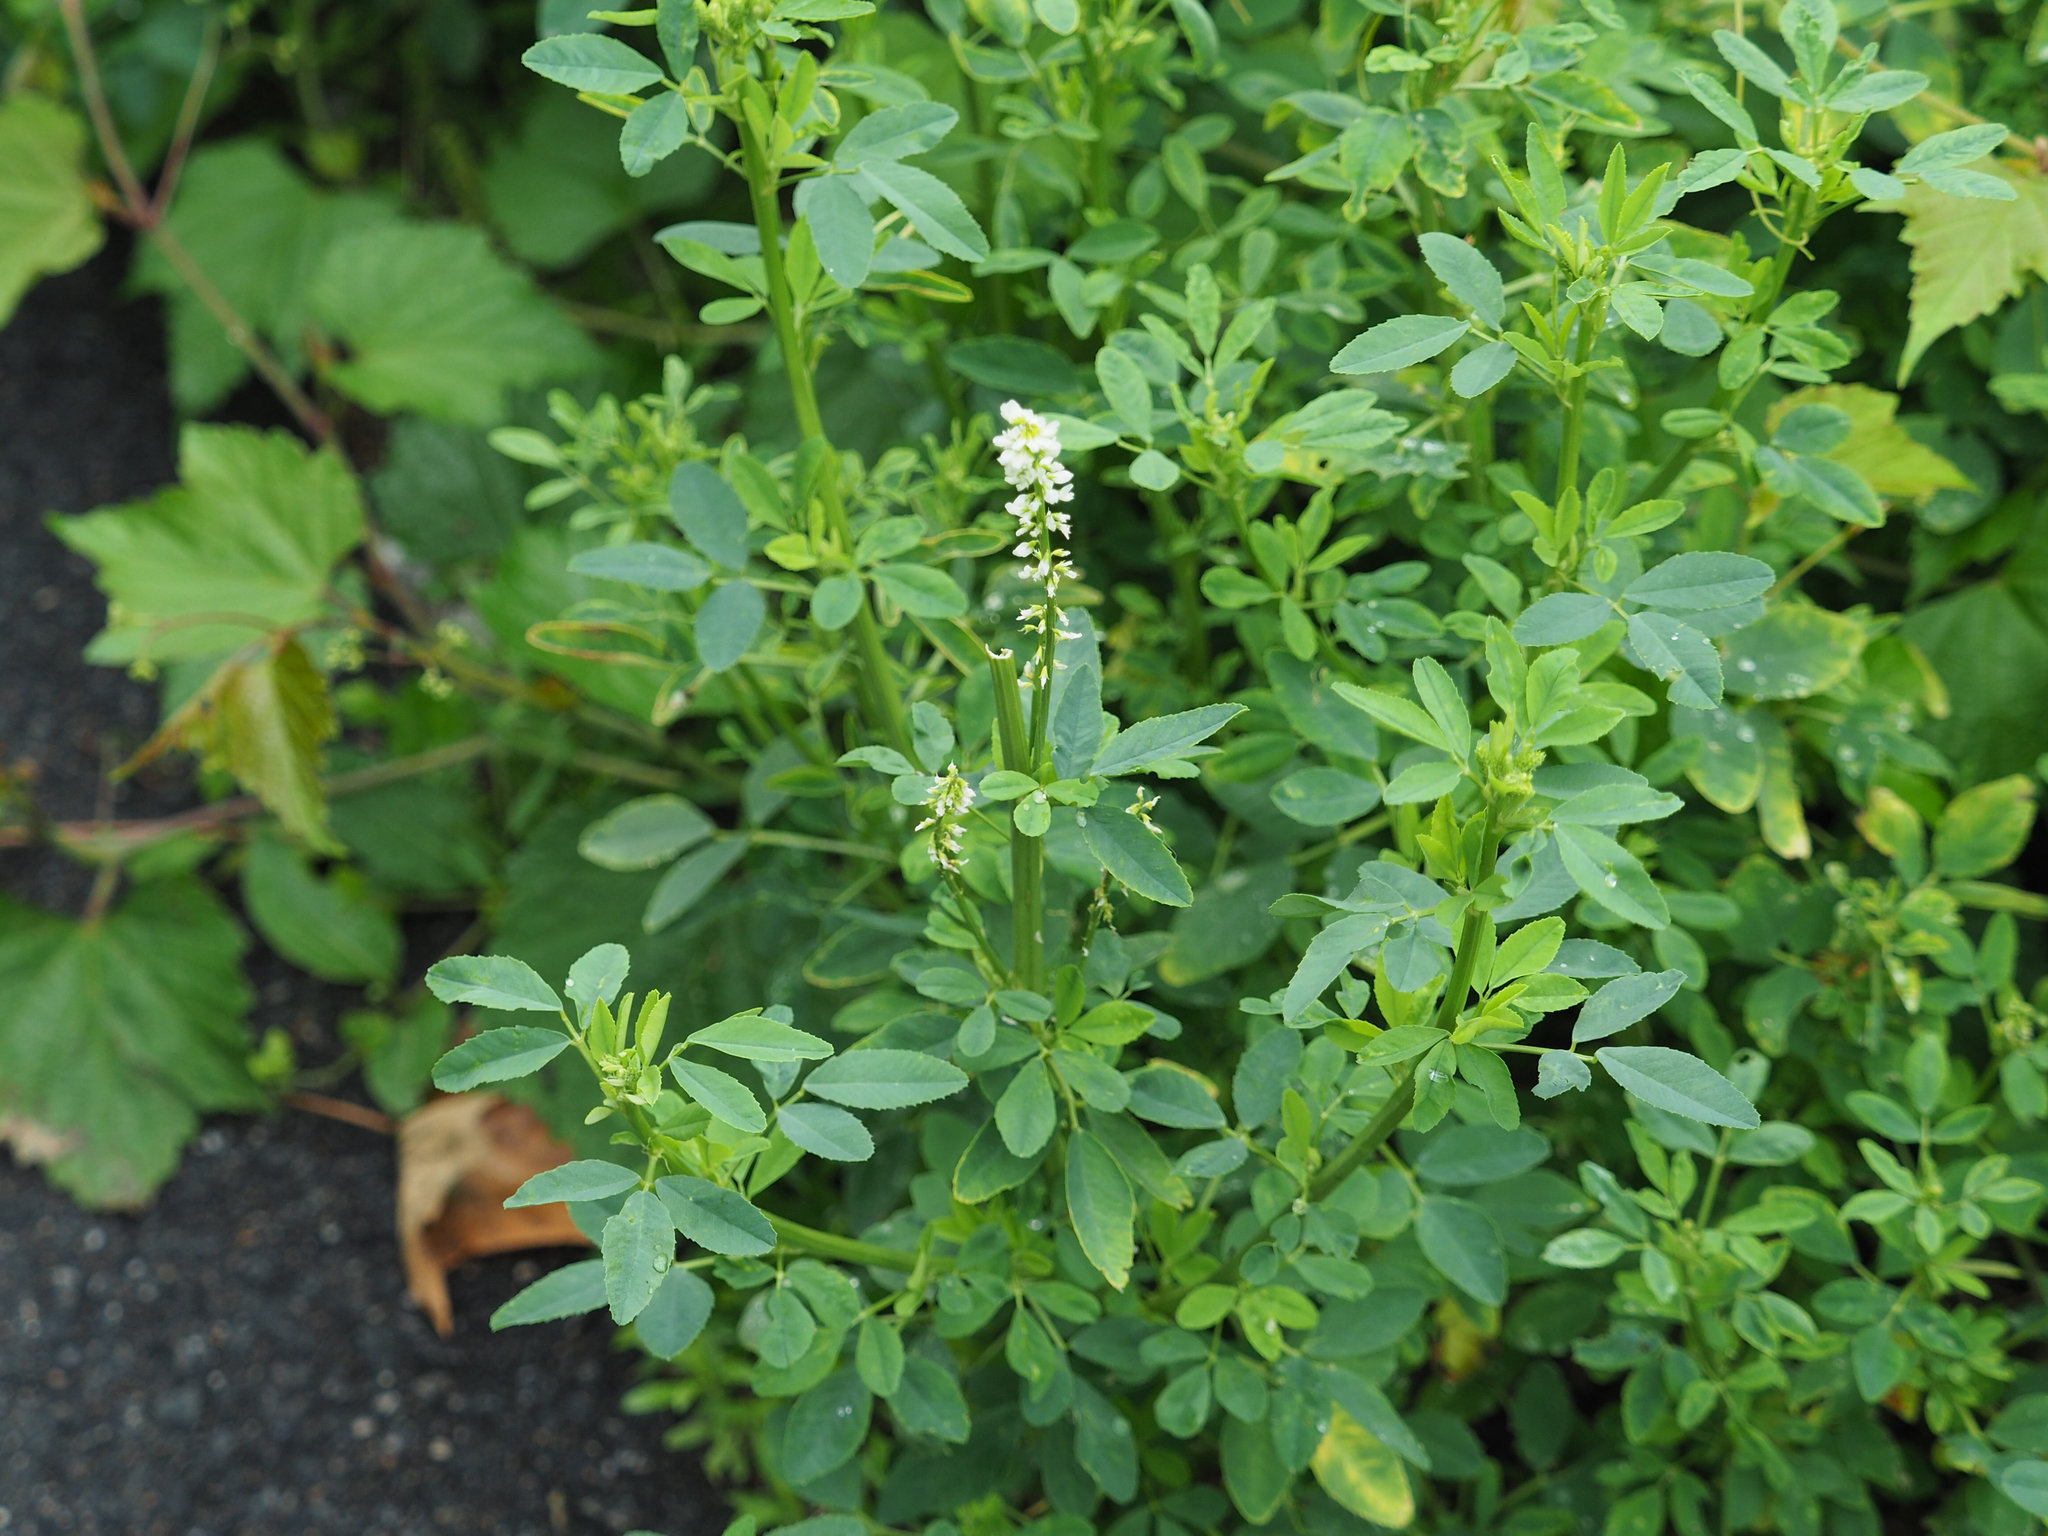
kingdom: Plantae
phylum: Tracheophyta
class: Magnoliopsida
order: Fabales
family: Fabaceae
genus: Melilotus
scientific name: Melilotus albus
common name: White melilot
